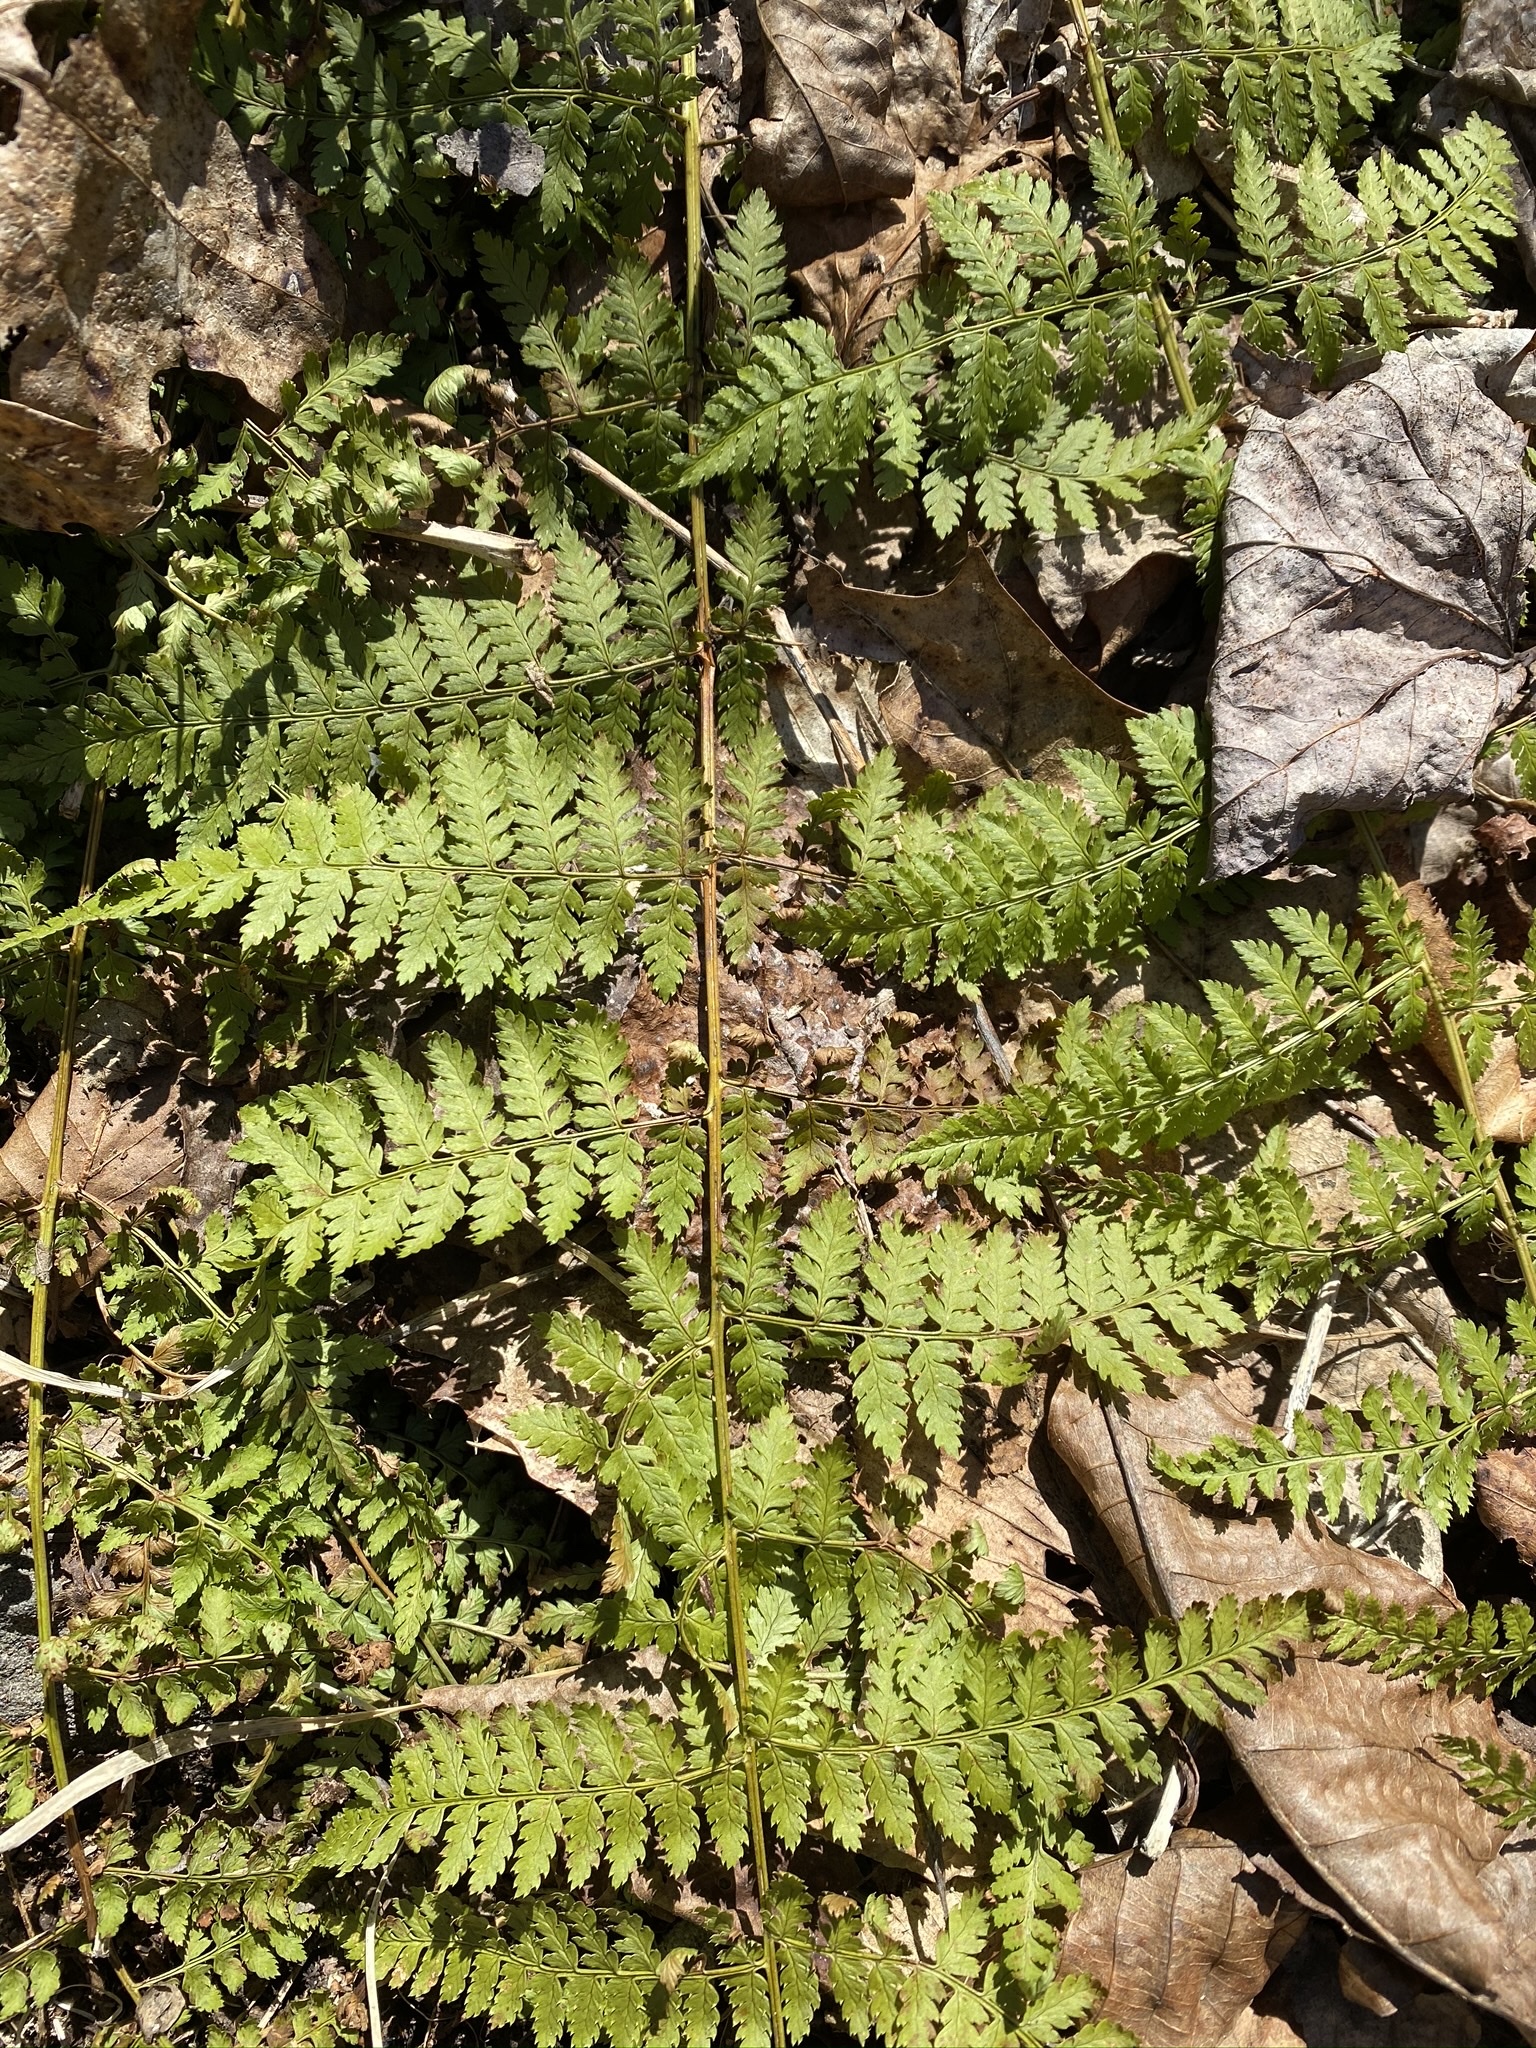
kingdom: Plantae
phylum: Tracheophyta
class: Polypodiopsida
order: Polypodiales
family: Dryopteridaceae
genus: Dryopteris
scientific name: Dryopteris intermedia
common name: Evergreen wood fern
